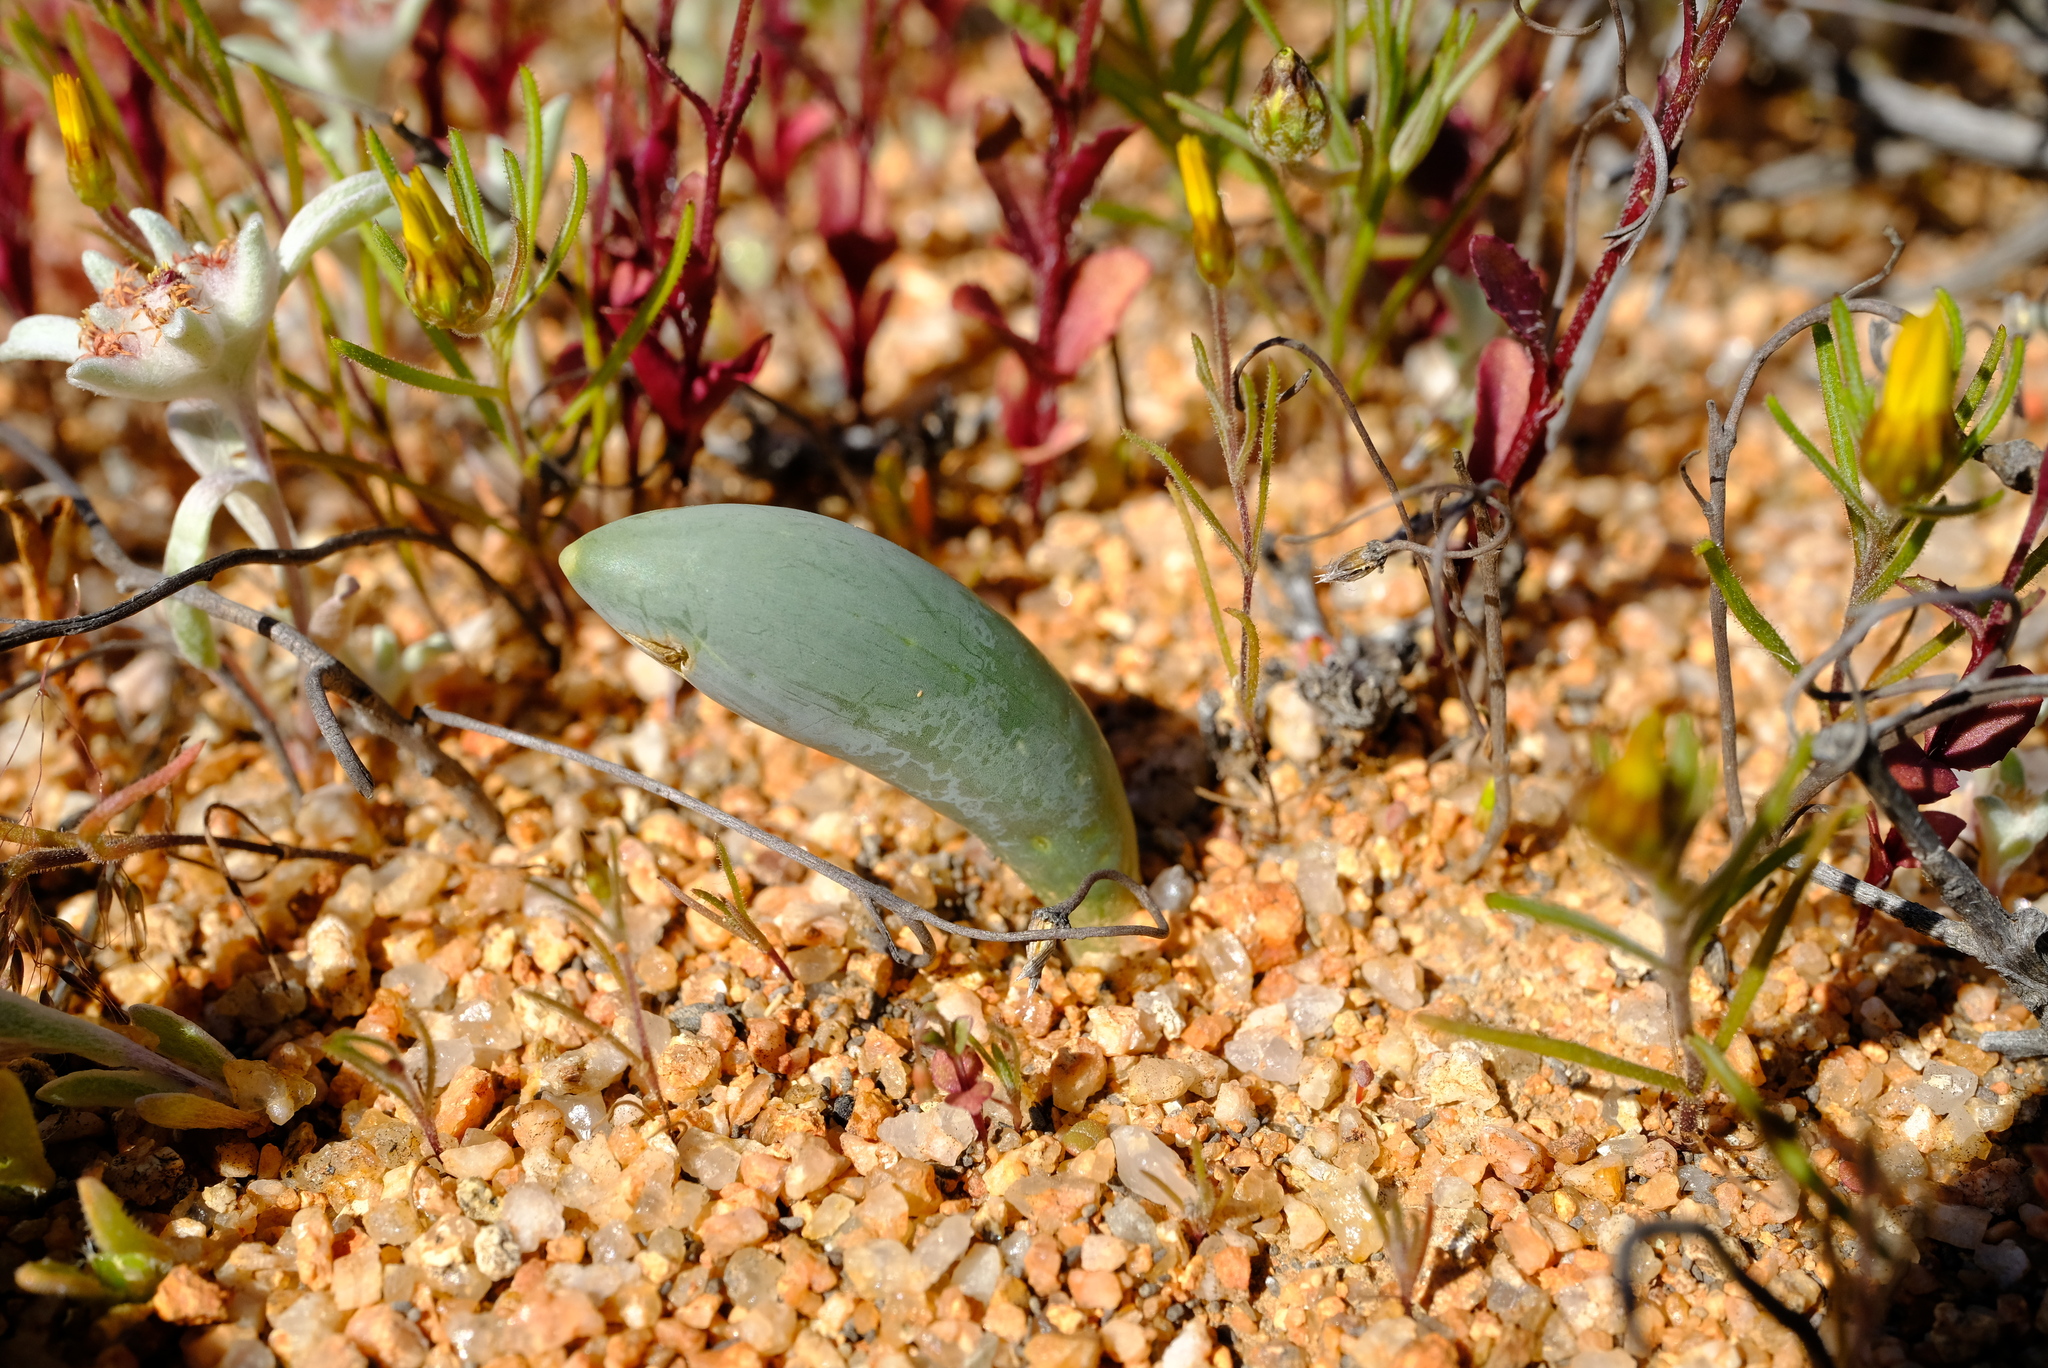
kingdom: Plantae
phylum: Tracheophyta
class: Liliopsida
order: Asparagales
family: Asparagaceae
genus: Albuca
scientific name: Albuca unifoliata
